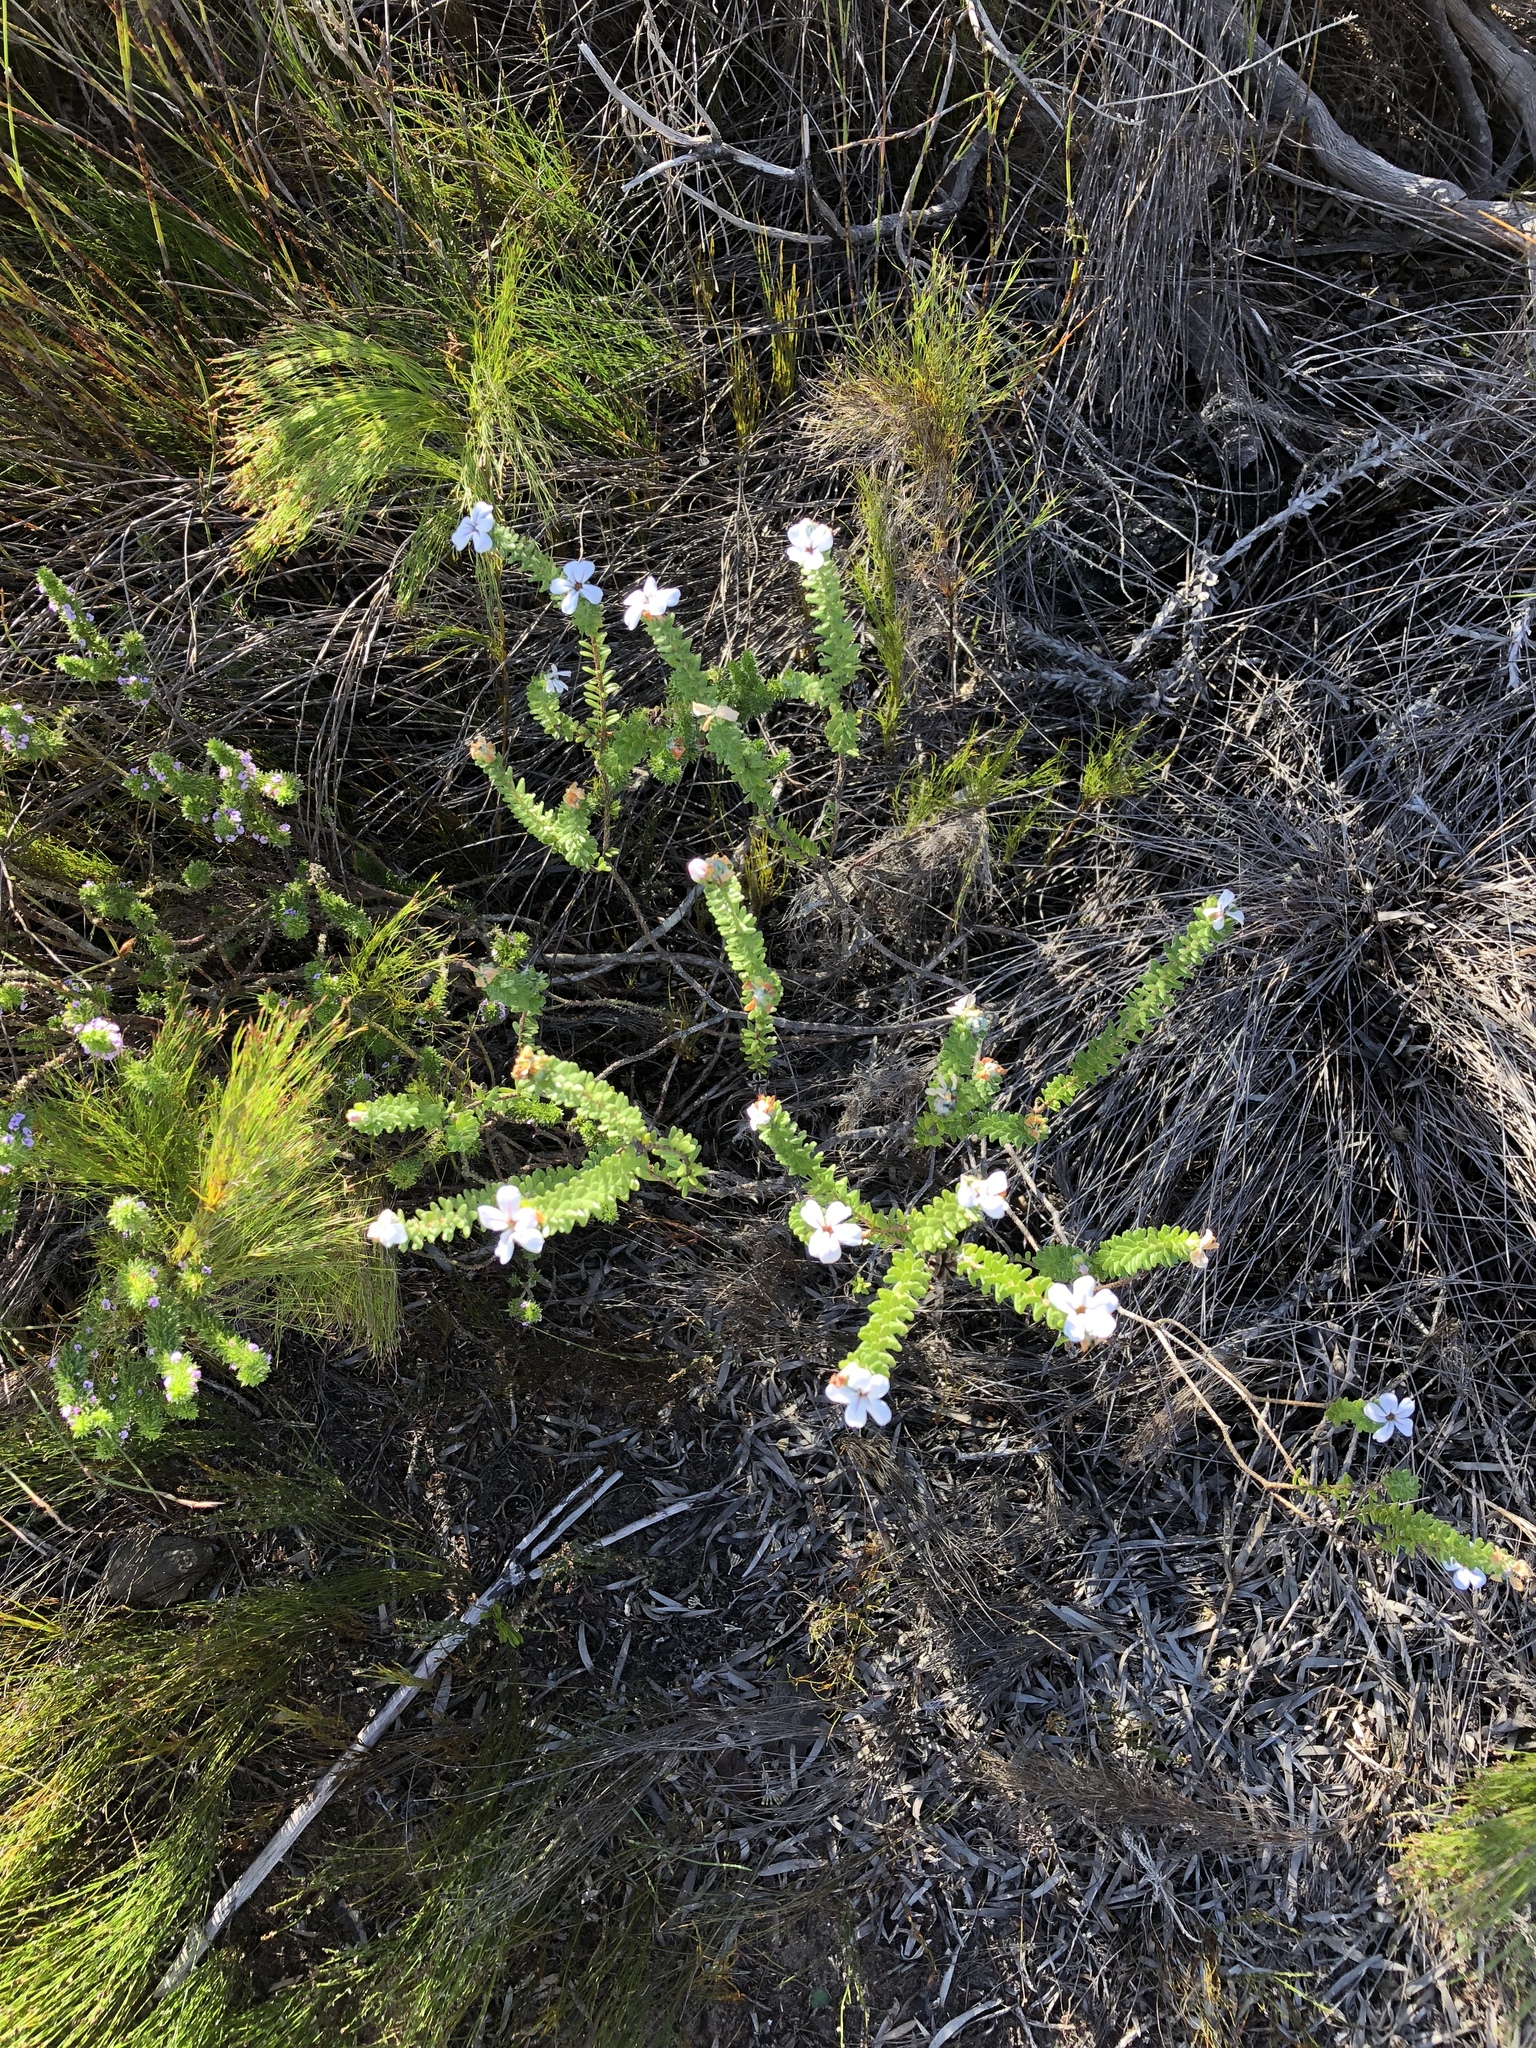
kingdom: Plantae
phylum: Tracheophyta
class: Magnoliopsida
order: Sapindales
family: Rutaceae
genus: Adenandra
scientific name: Adenandra obtusata
